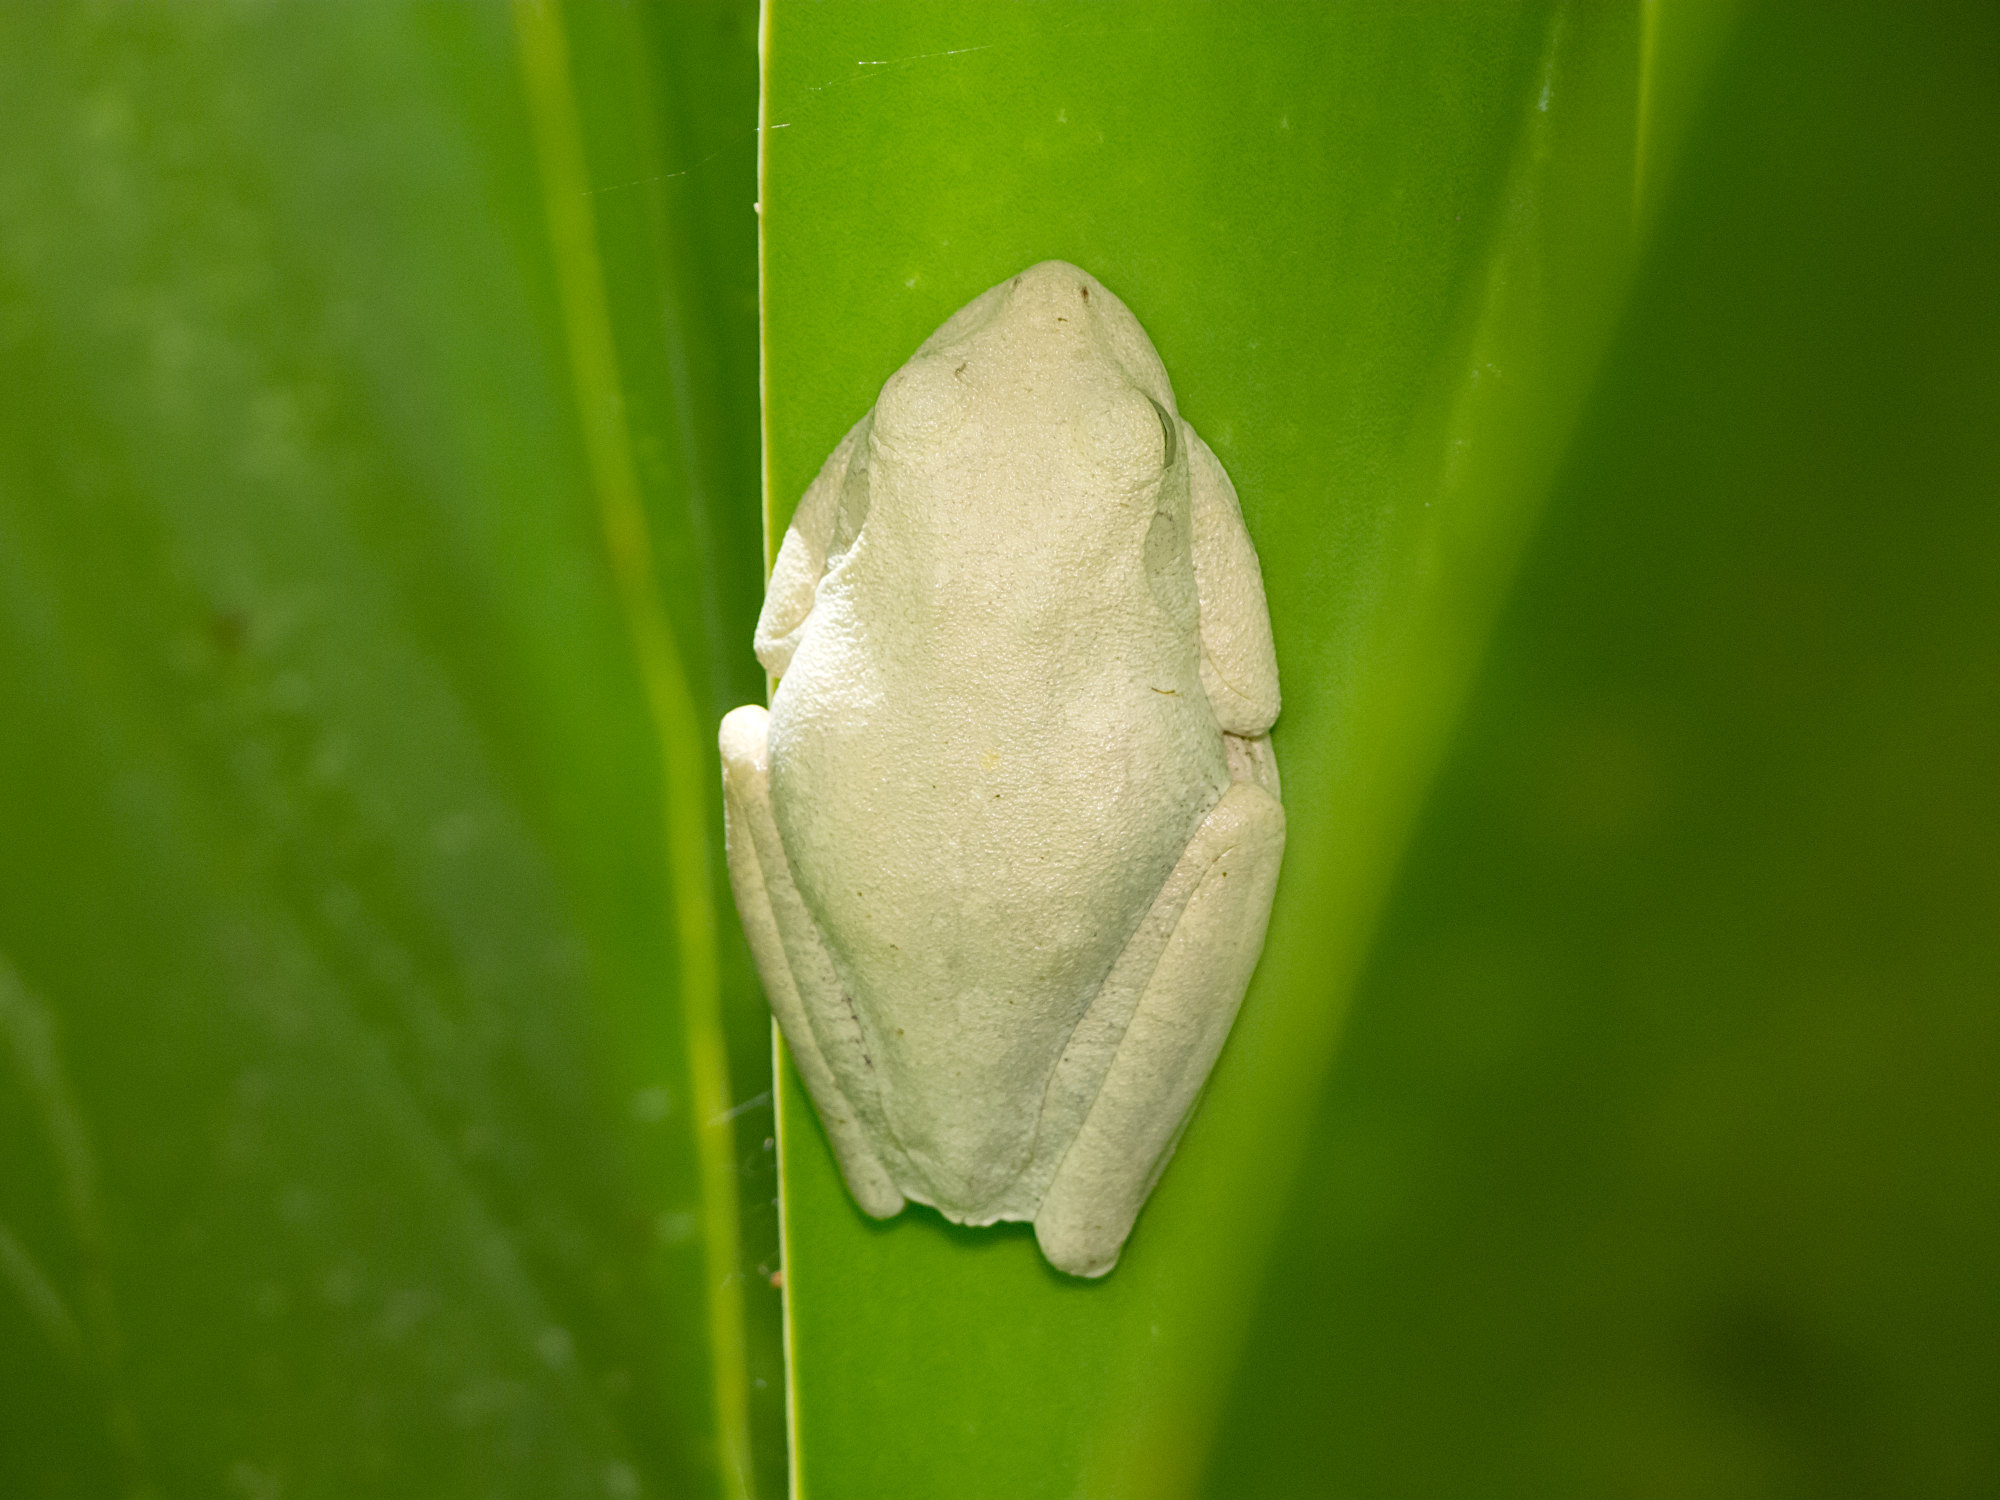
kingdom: Animalia
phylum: Chordata
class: Amphibia
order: Anura
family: Hylidae
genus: Boana
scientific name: Boana platanera
